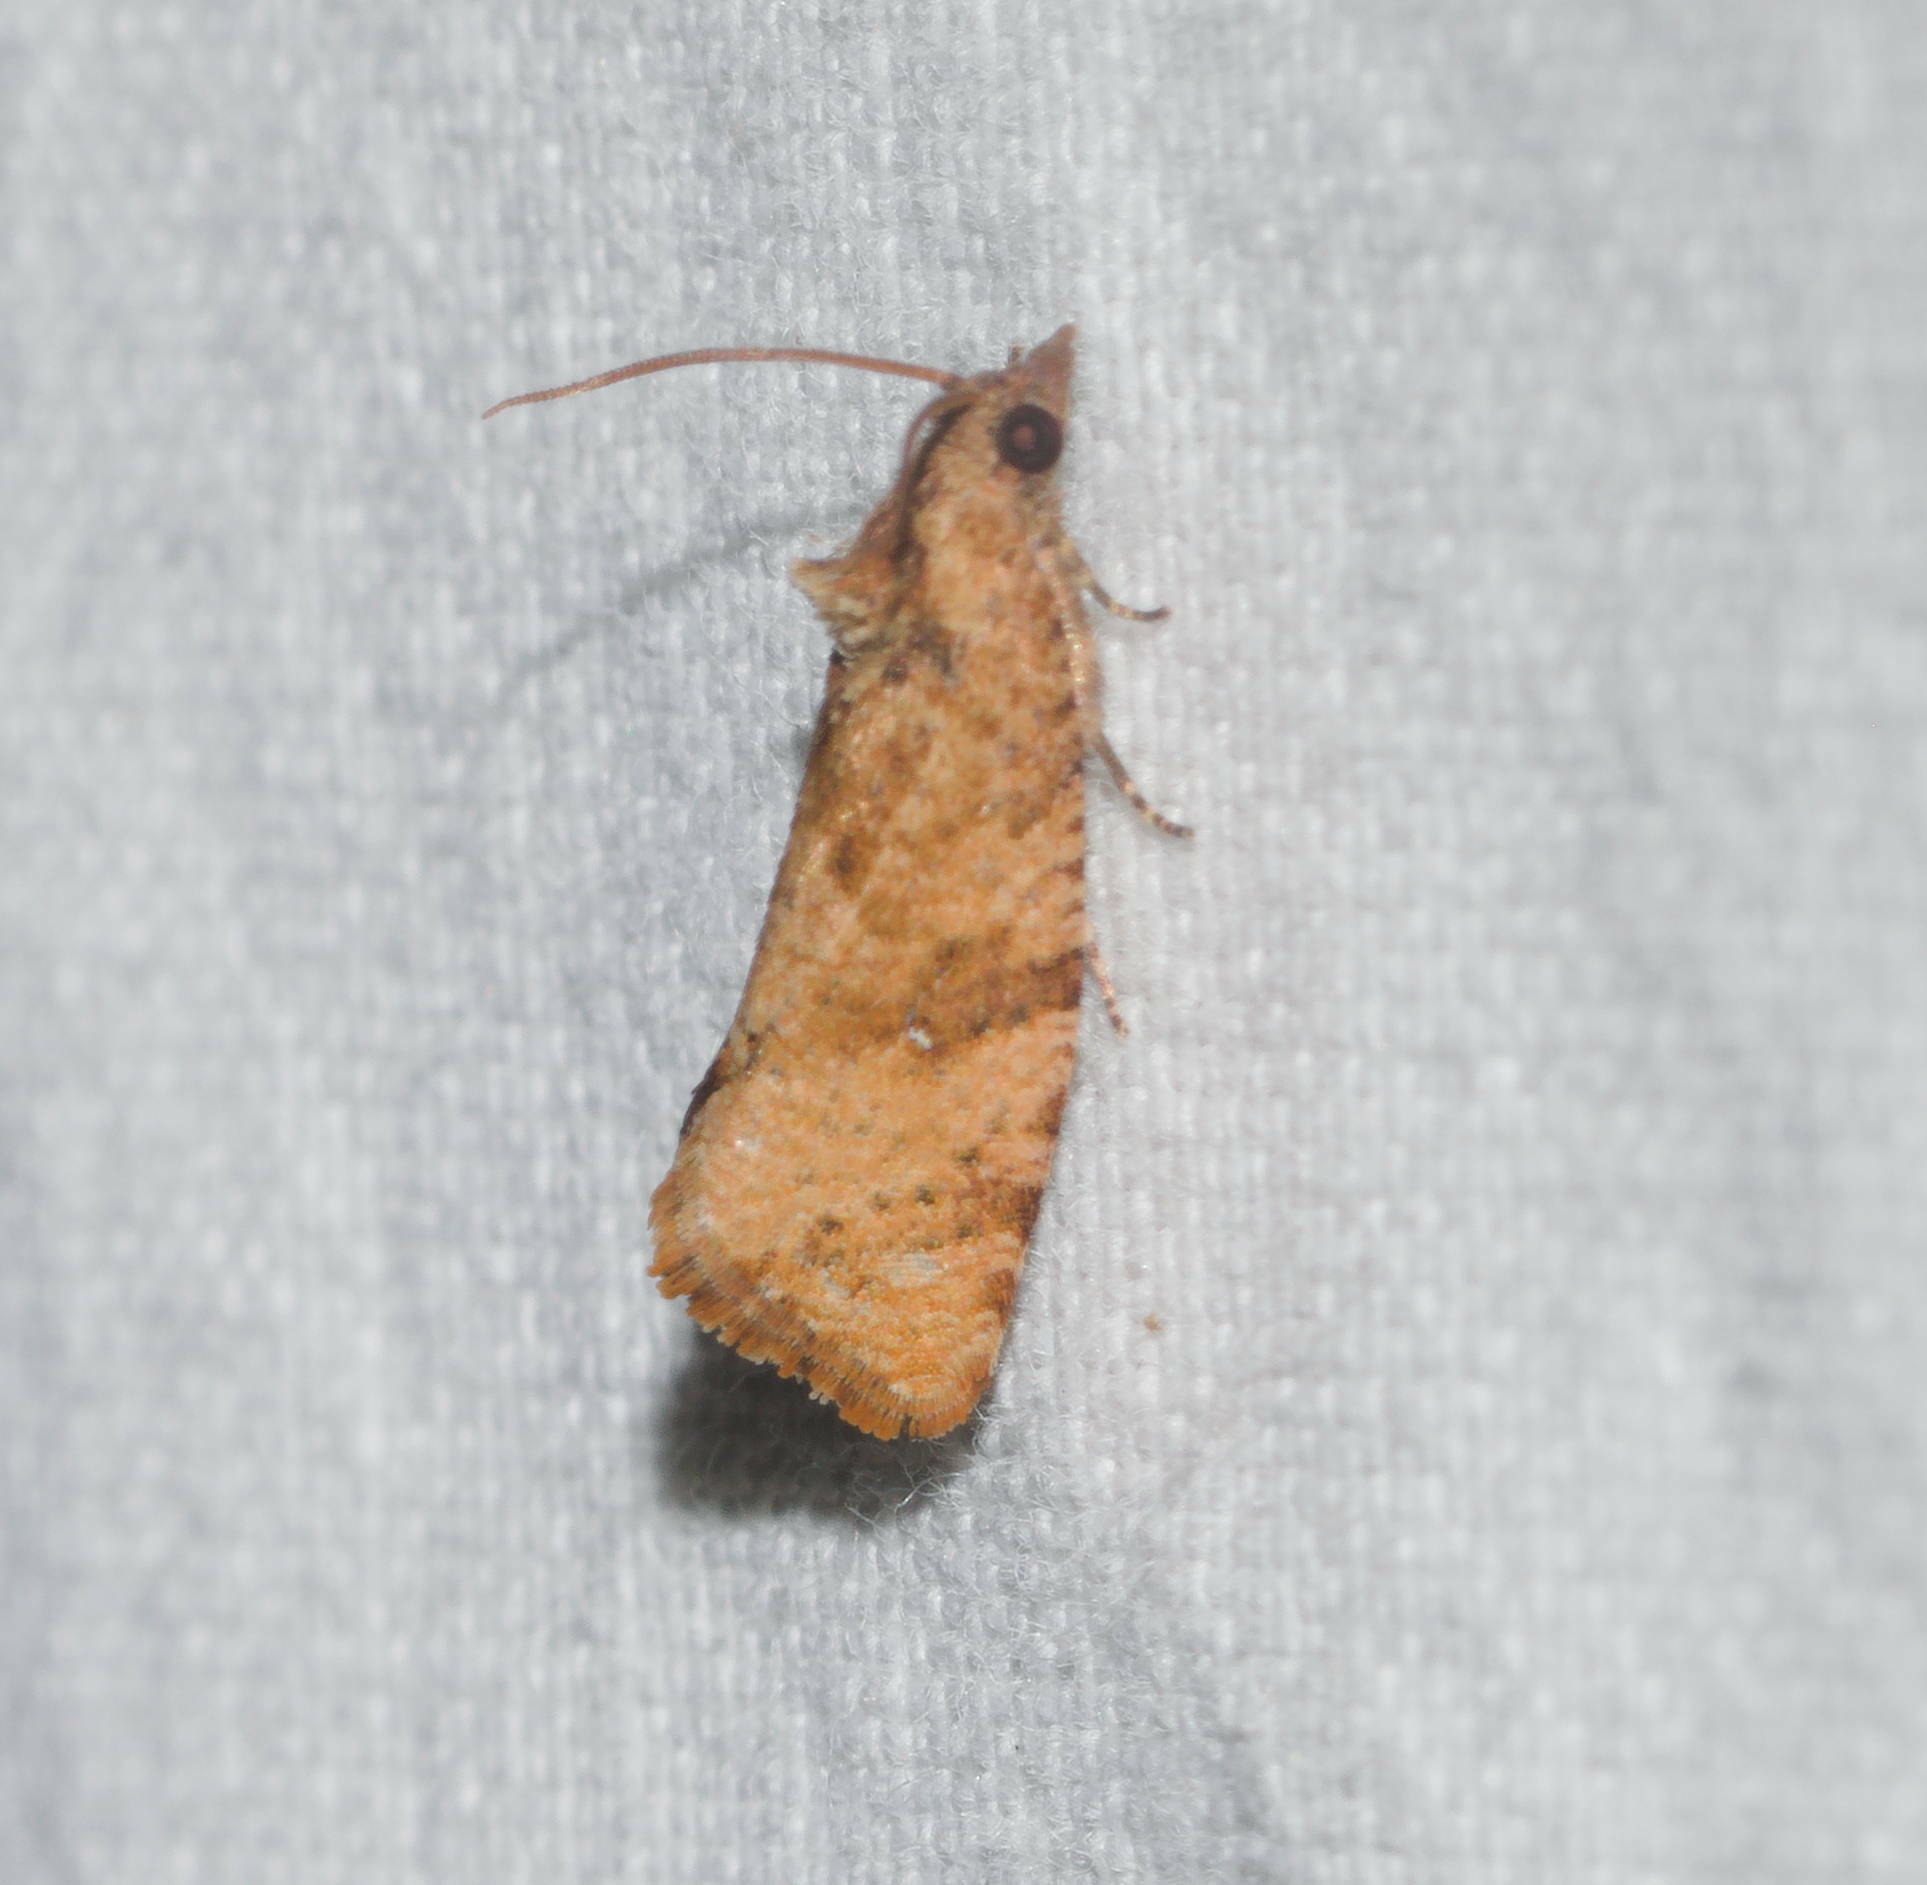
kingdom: Animalia
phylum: Arthropoda
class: Insecta
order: Lepidoptera
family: Tortricidae
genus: Cryptophlebia
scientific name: Cryptophlebia illepida
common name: Moth
